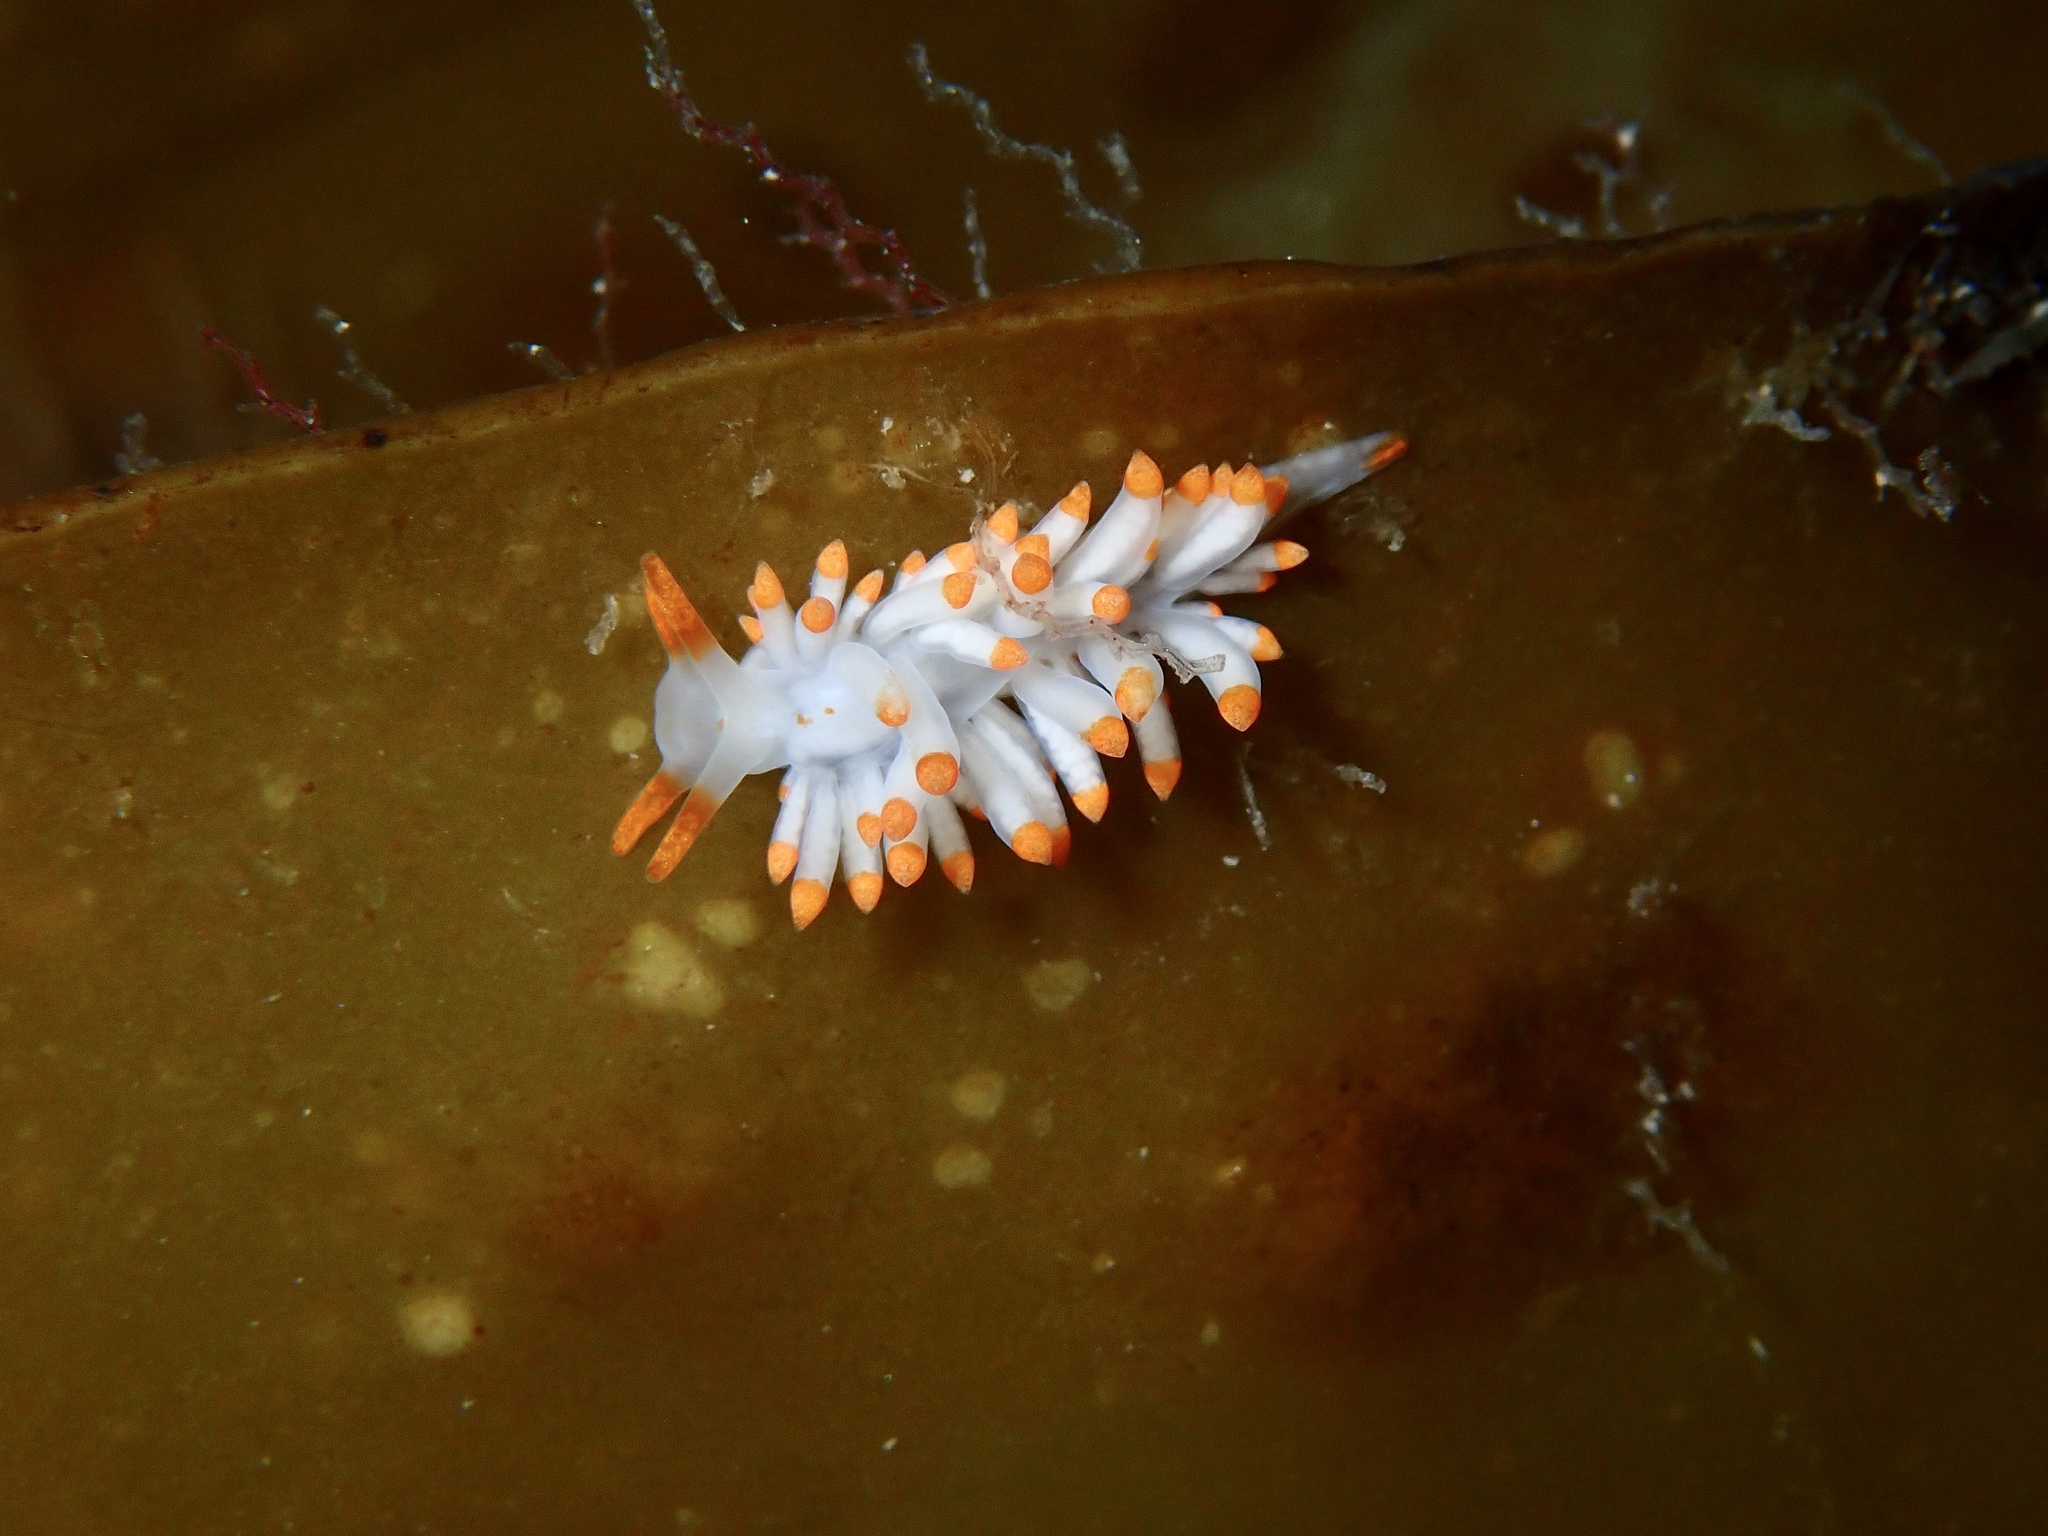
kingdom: Animalia
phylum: Mollusca
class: Gastropoda
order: Nudibranchia
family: Eubranchidae
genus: Amphorina
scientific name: Amphorina farrani
